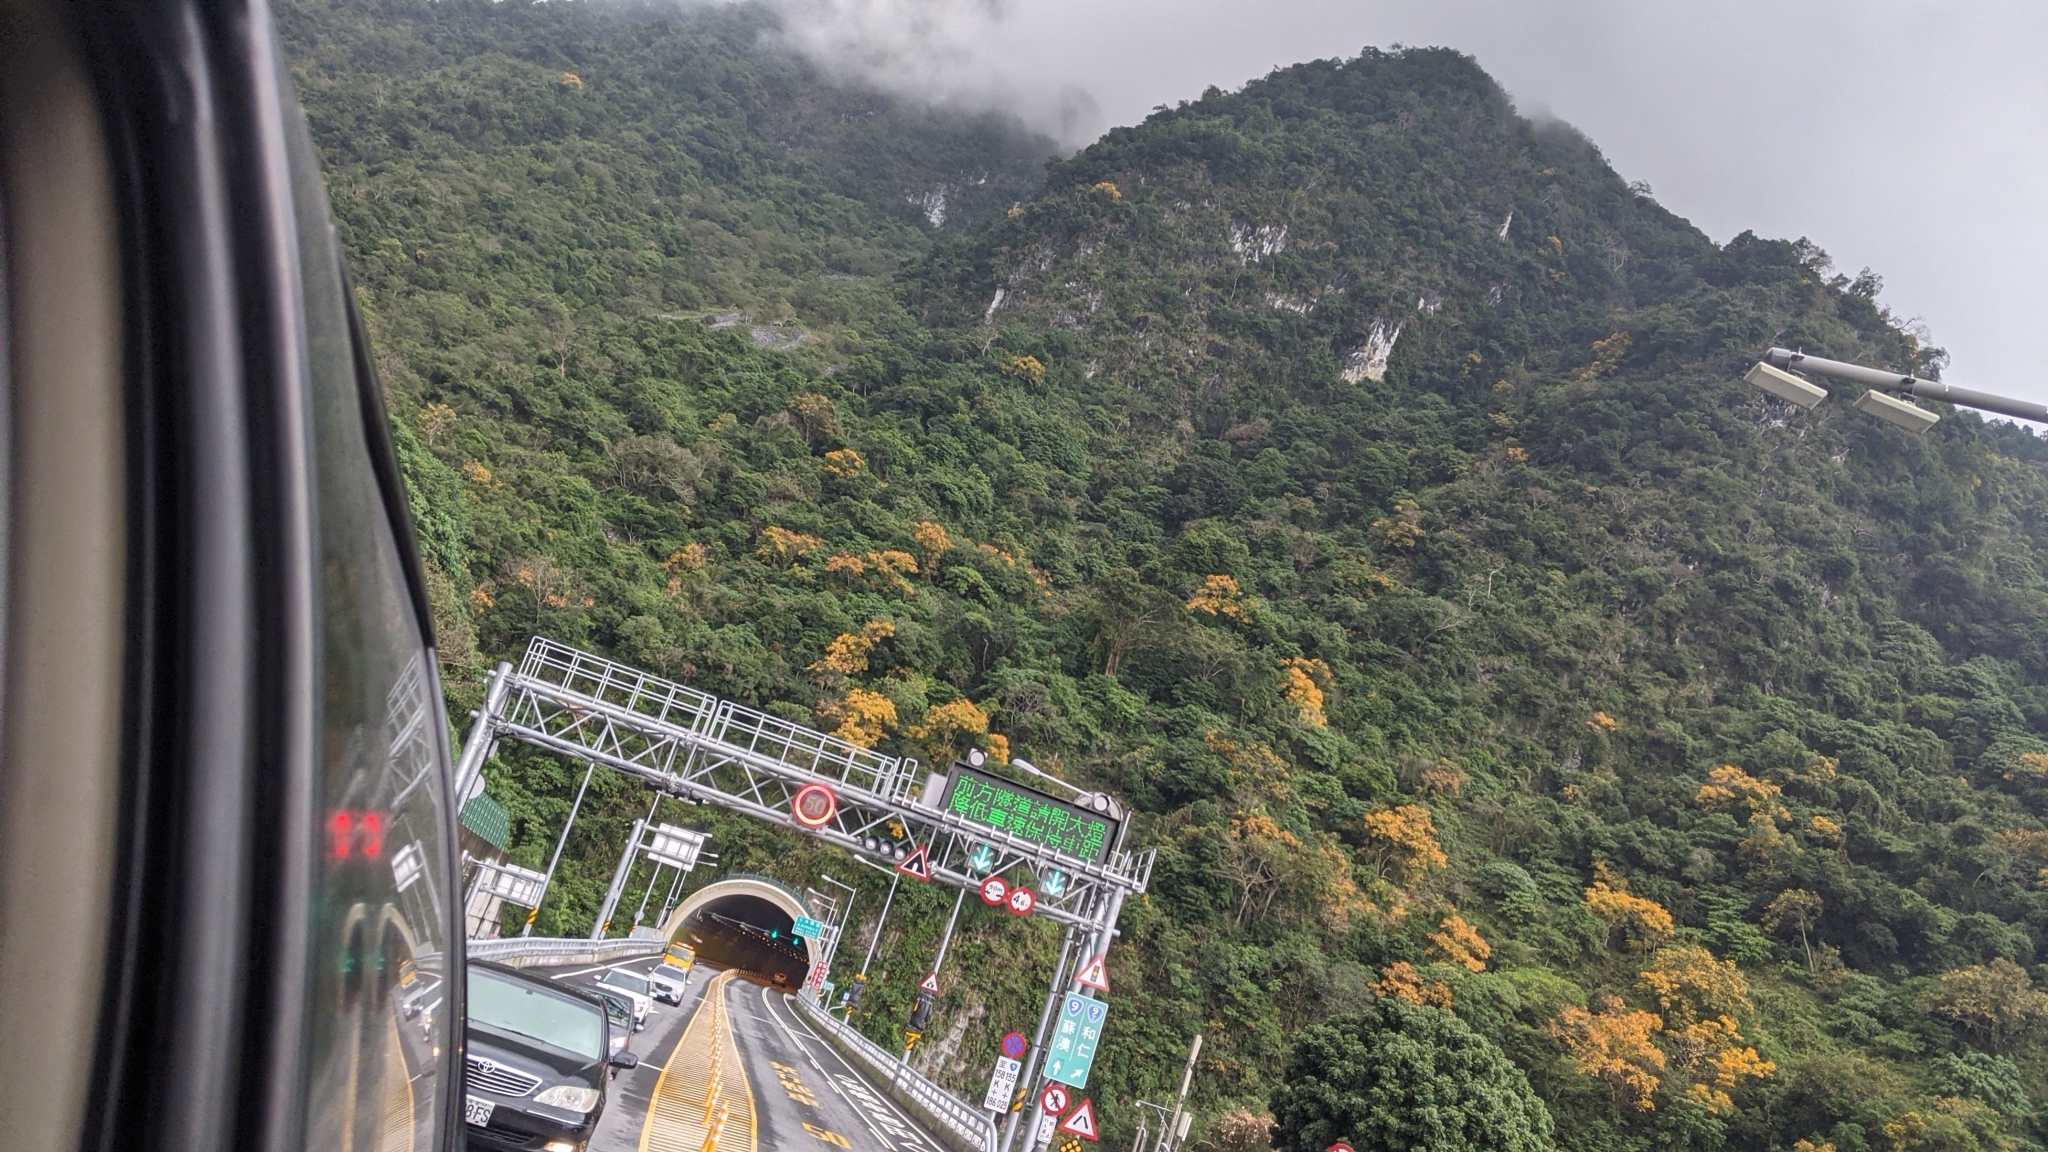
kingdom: Plantae
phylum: Tracheophyta
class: Magnoliopsida
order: Sapindales
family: Sapindaceae
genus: Sapindus
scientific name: Sapindus mukorossi
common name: Chinese soapberry
